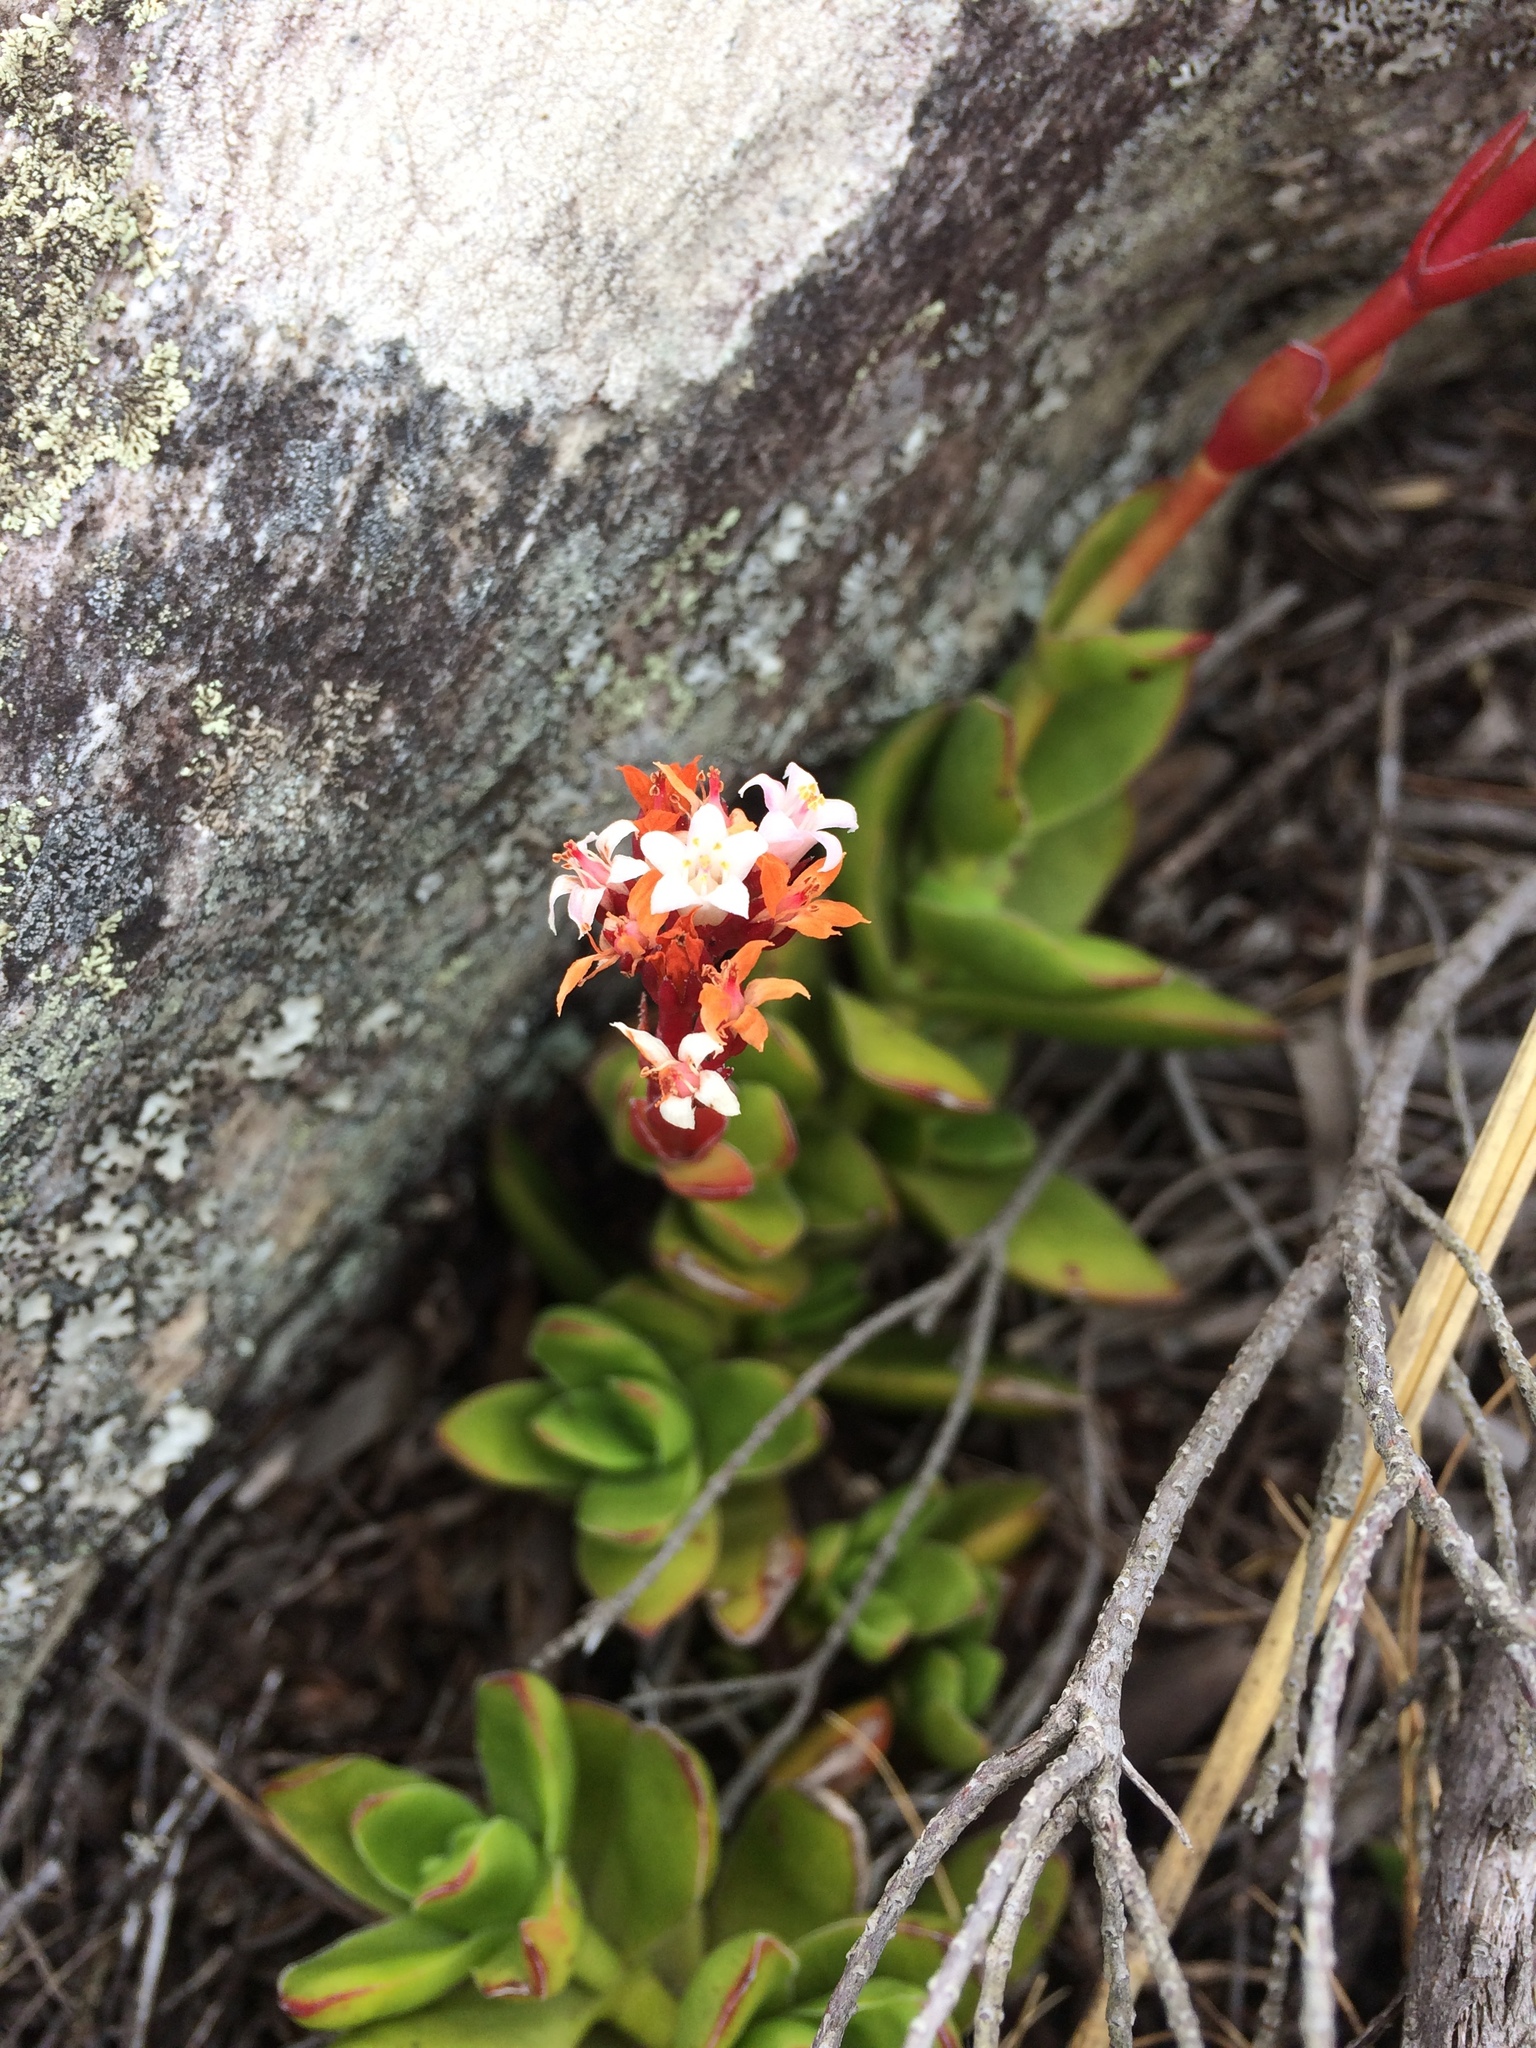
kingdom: Plantae
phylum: Tracheophyta
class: Magnoliopsida
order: Saxifragales
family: Crassulaceae
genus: Crassula
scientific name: Crassula rubricaulis
